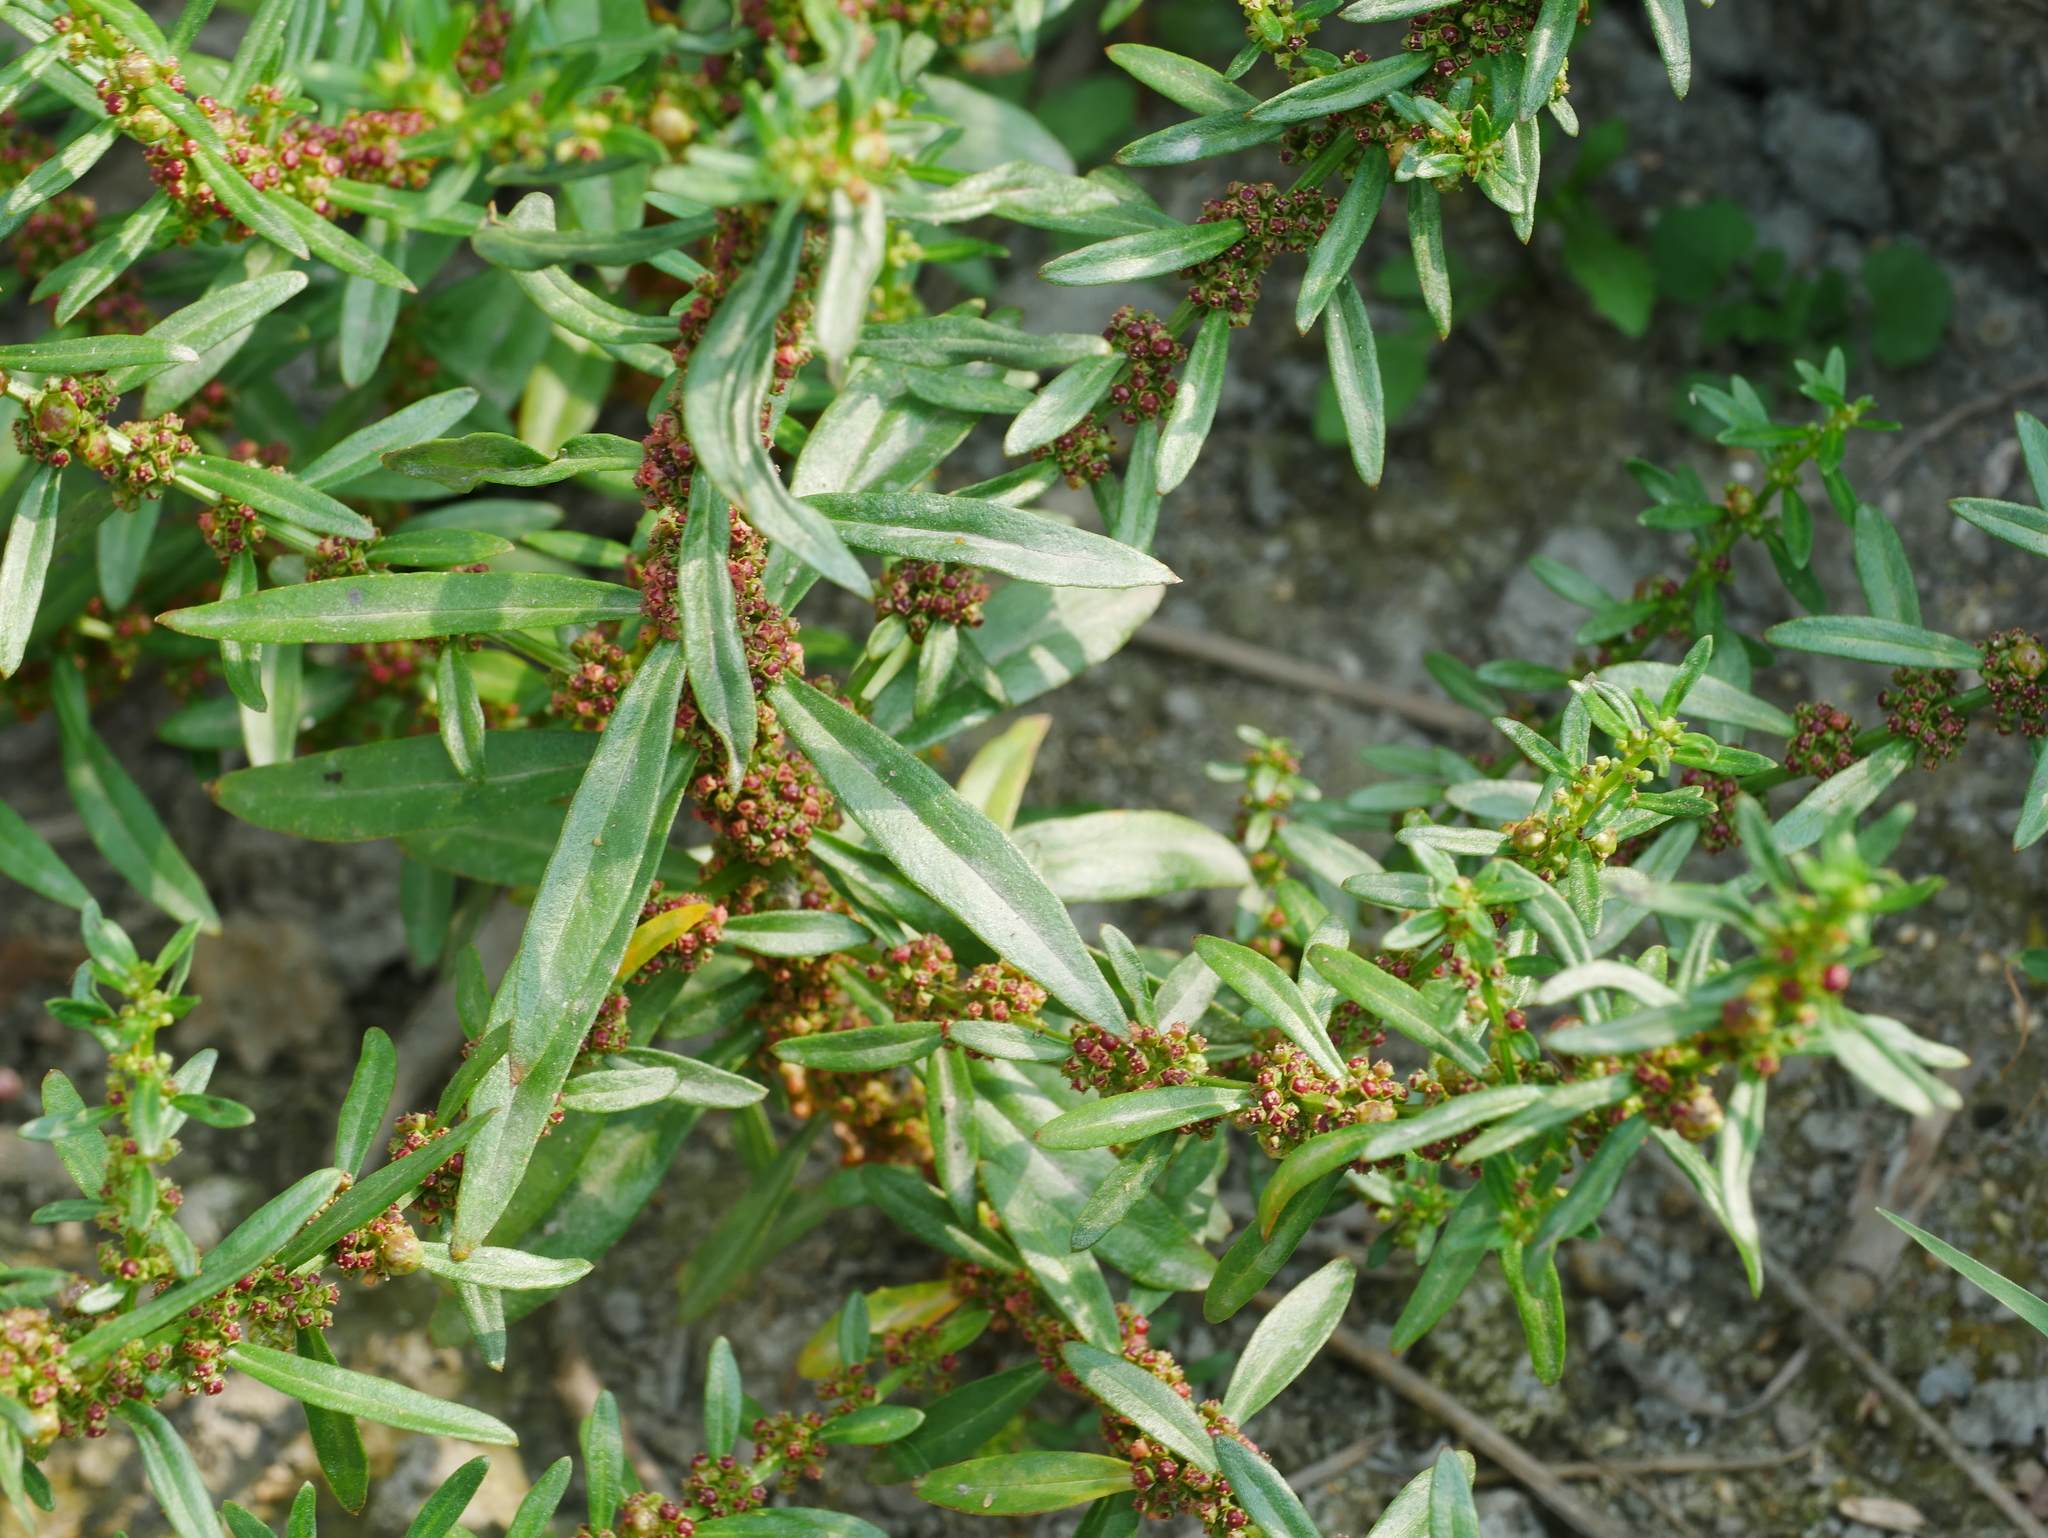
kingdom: Plantae
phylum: Tracheophyta
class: Magnoliopsida
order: Myrtales
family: Lythraceae
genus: Ammannia
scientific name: Ammannia baccifera
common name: Blistering ammania
